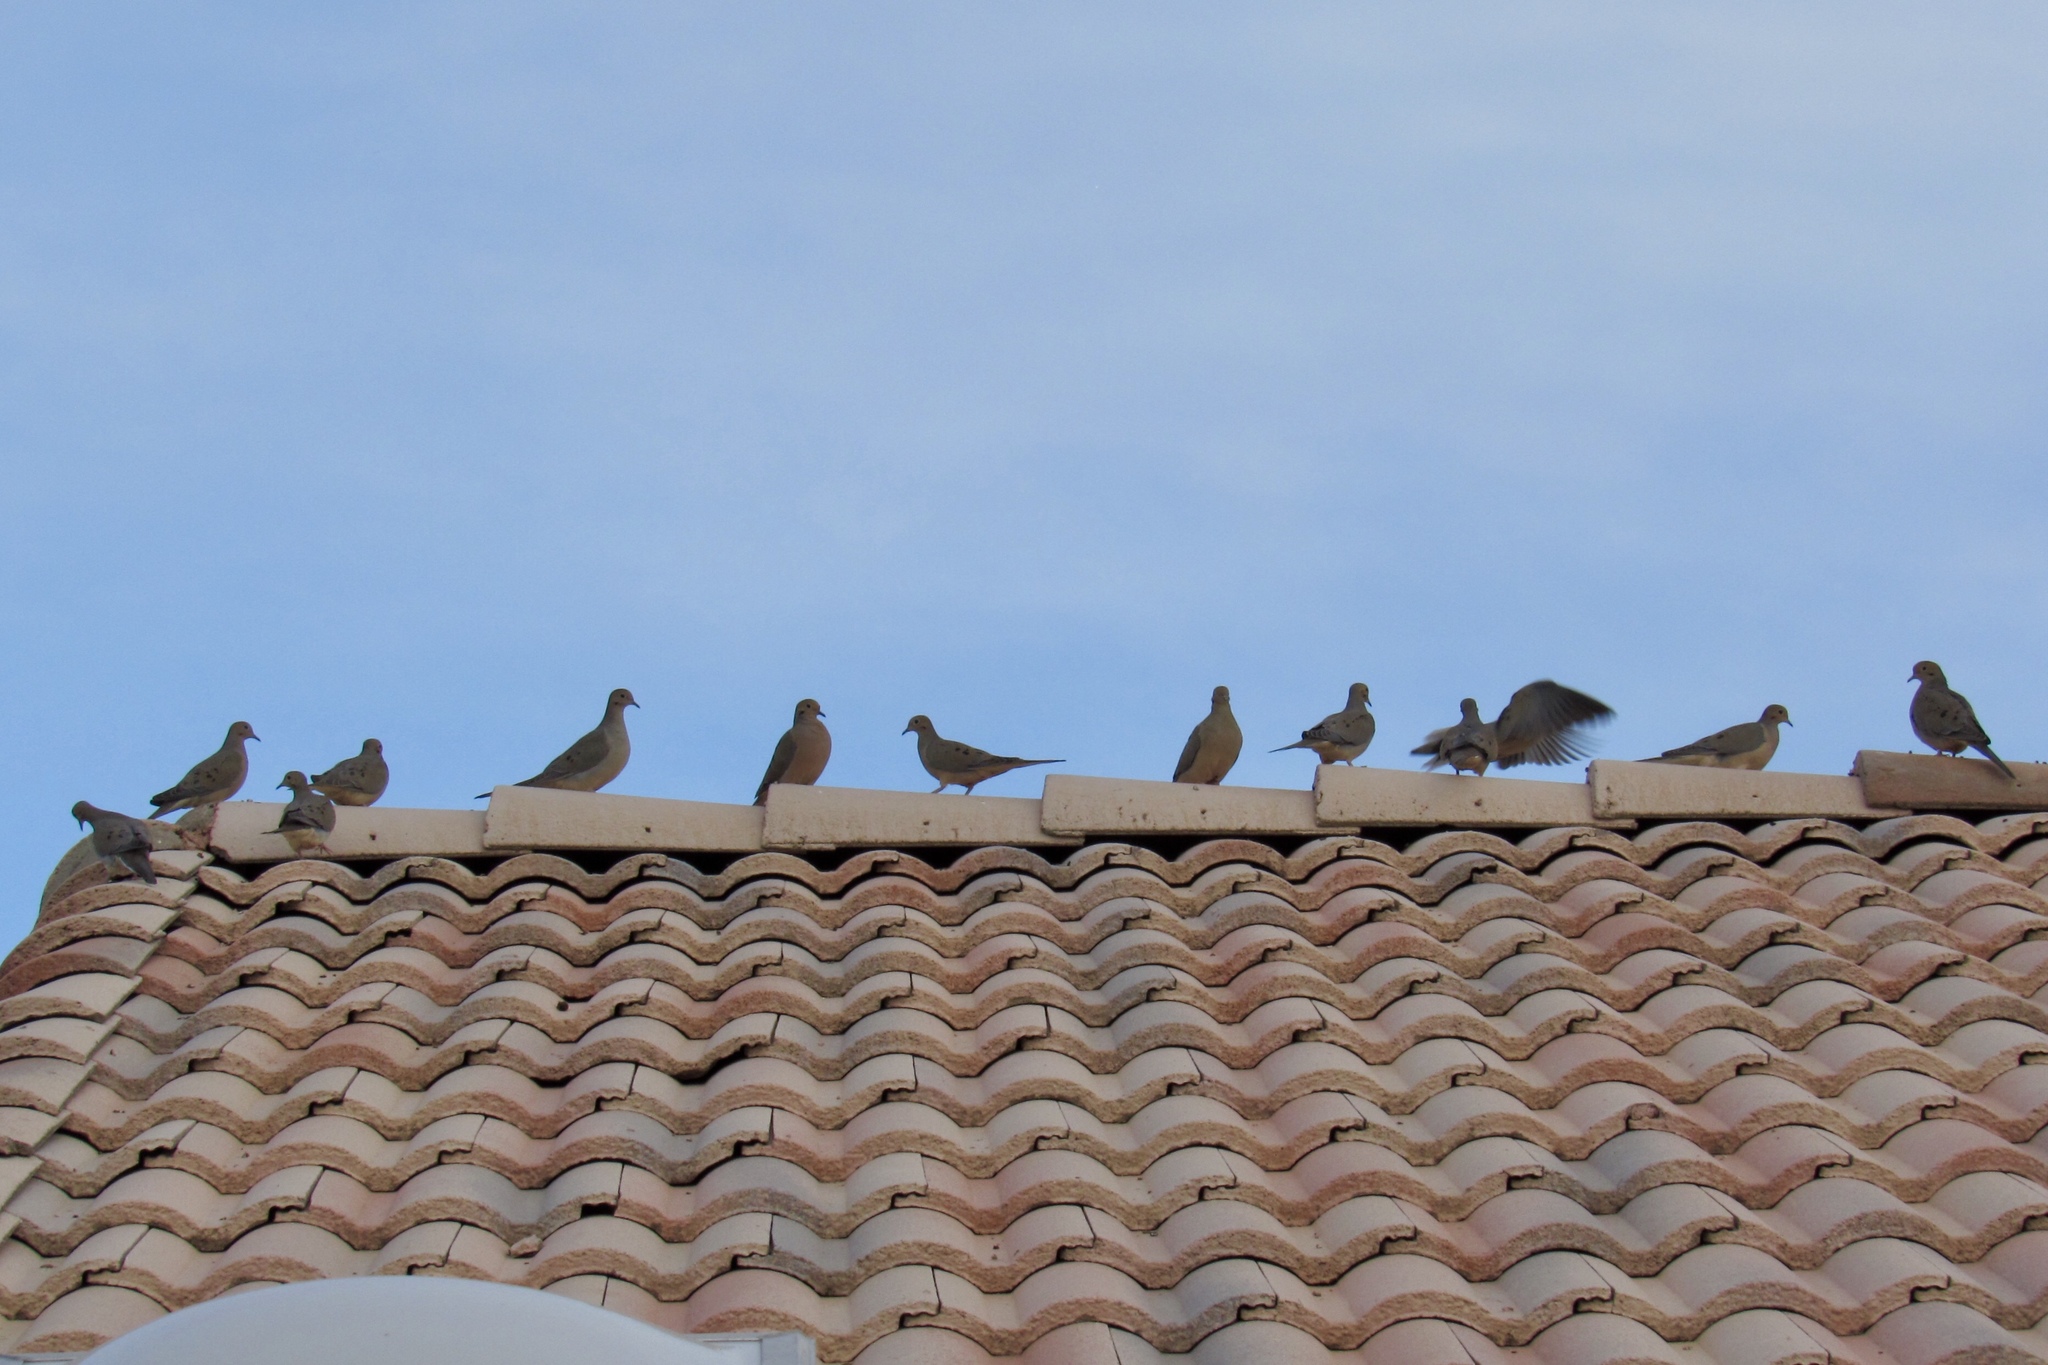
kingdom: Animalia
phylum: Chordata
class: Aves
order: Columbiformes
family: Columbidae
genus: Zenaida
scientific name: Zenaida macroura
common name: Mourning dove
